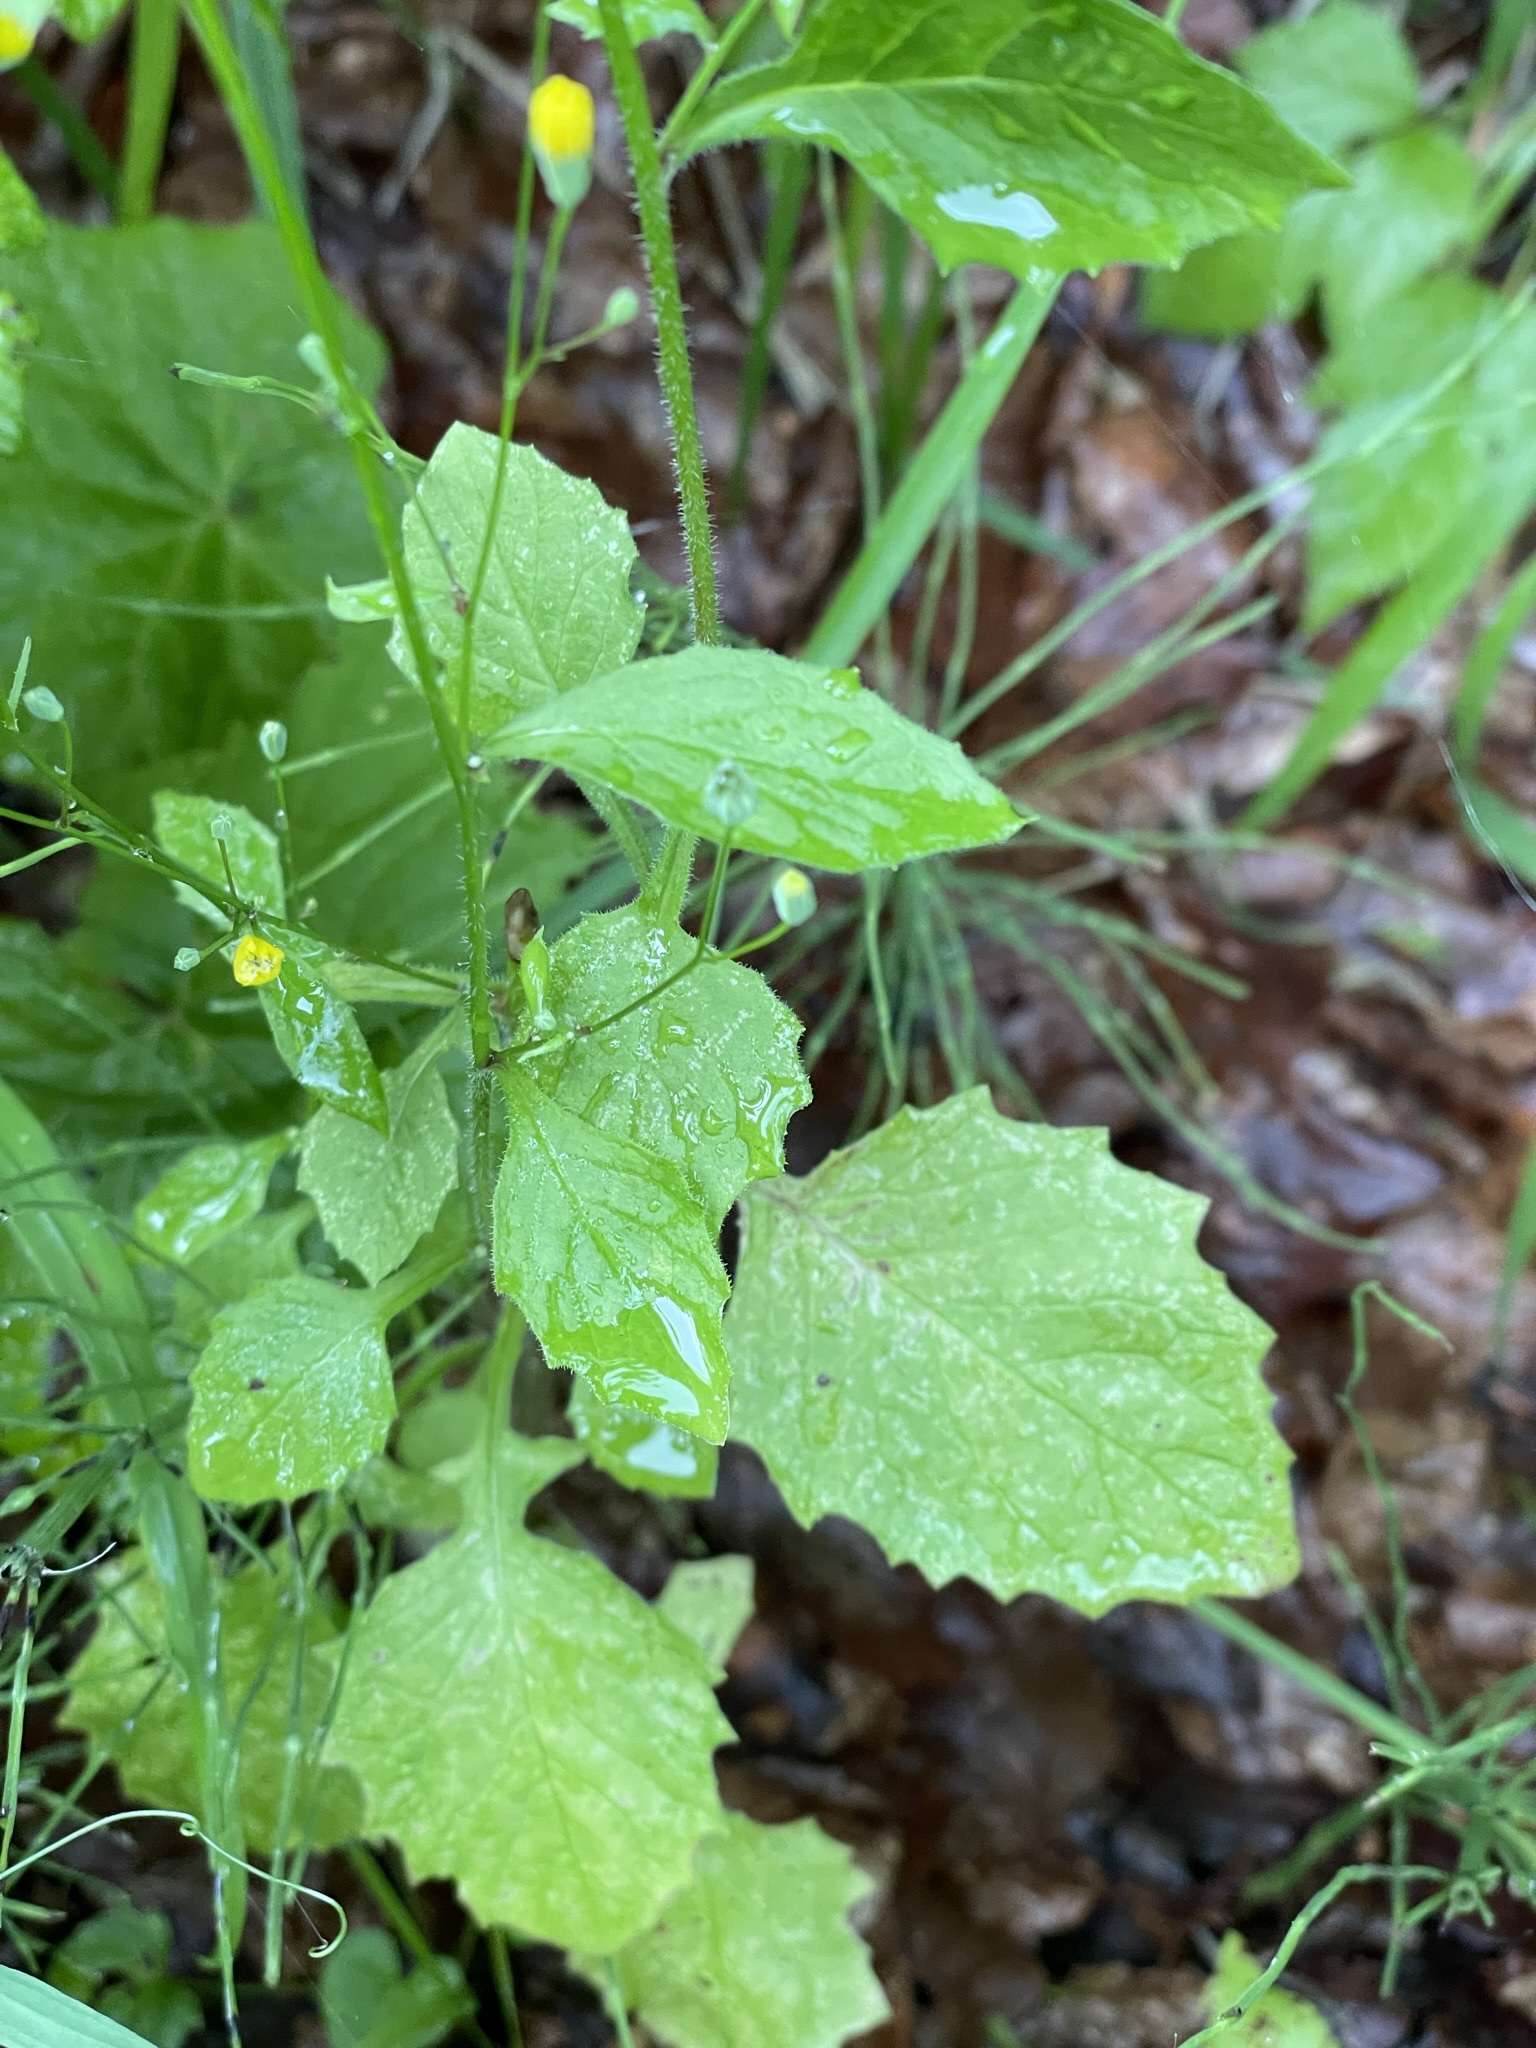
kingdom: Plantae
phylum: Tracheophyta
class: Magnoliopsida
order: Asterales
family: Asteraceae
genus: Lapsana
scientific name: Lapsana communis
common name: Nipplewort
